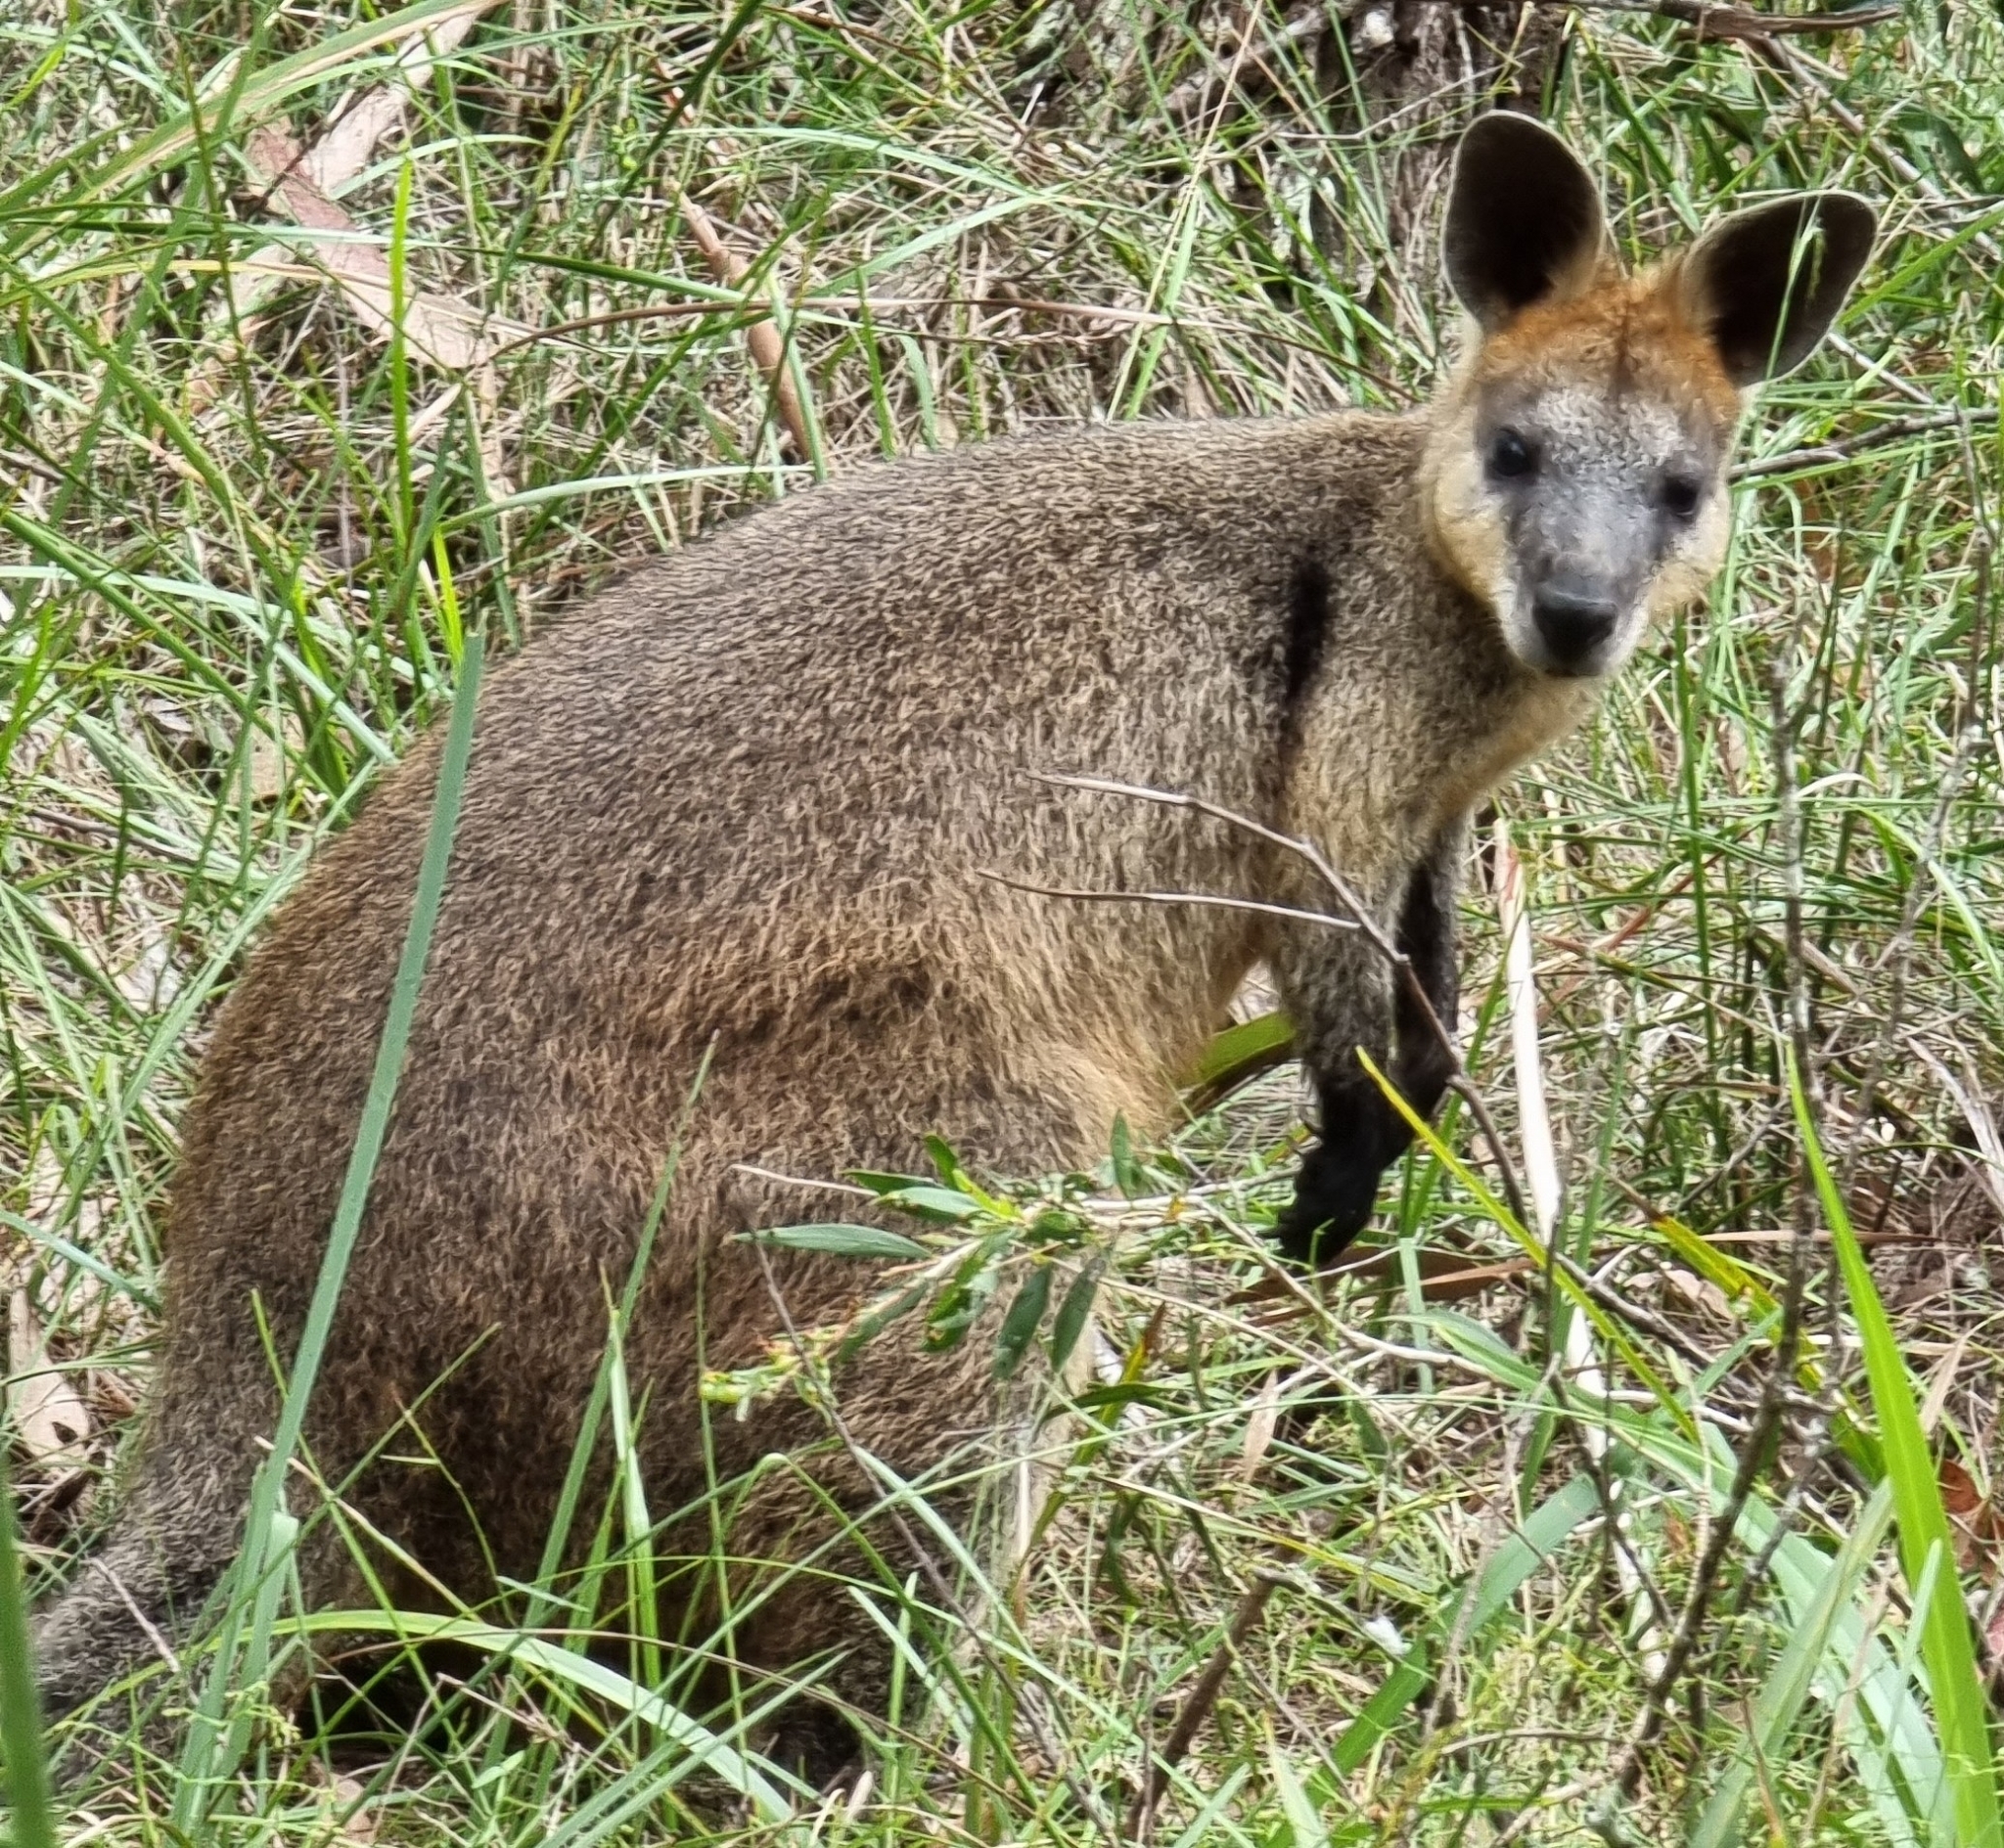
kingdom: Animalia
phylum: Chordata
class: Mammalia
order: Diprotodontia
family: Macropodidae
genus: Wallabia
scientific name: Wallabia bicolor
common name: Swamp wallaby
